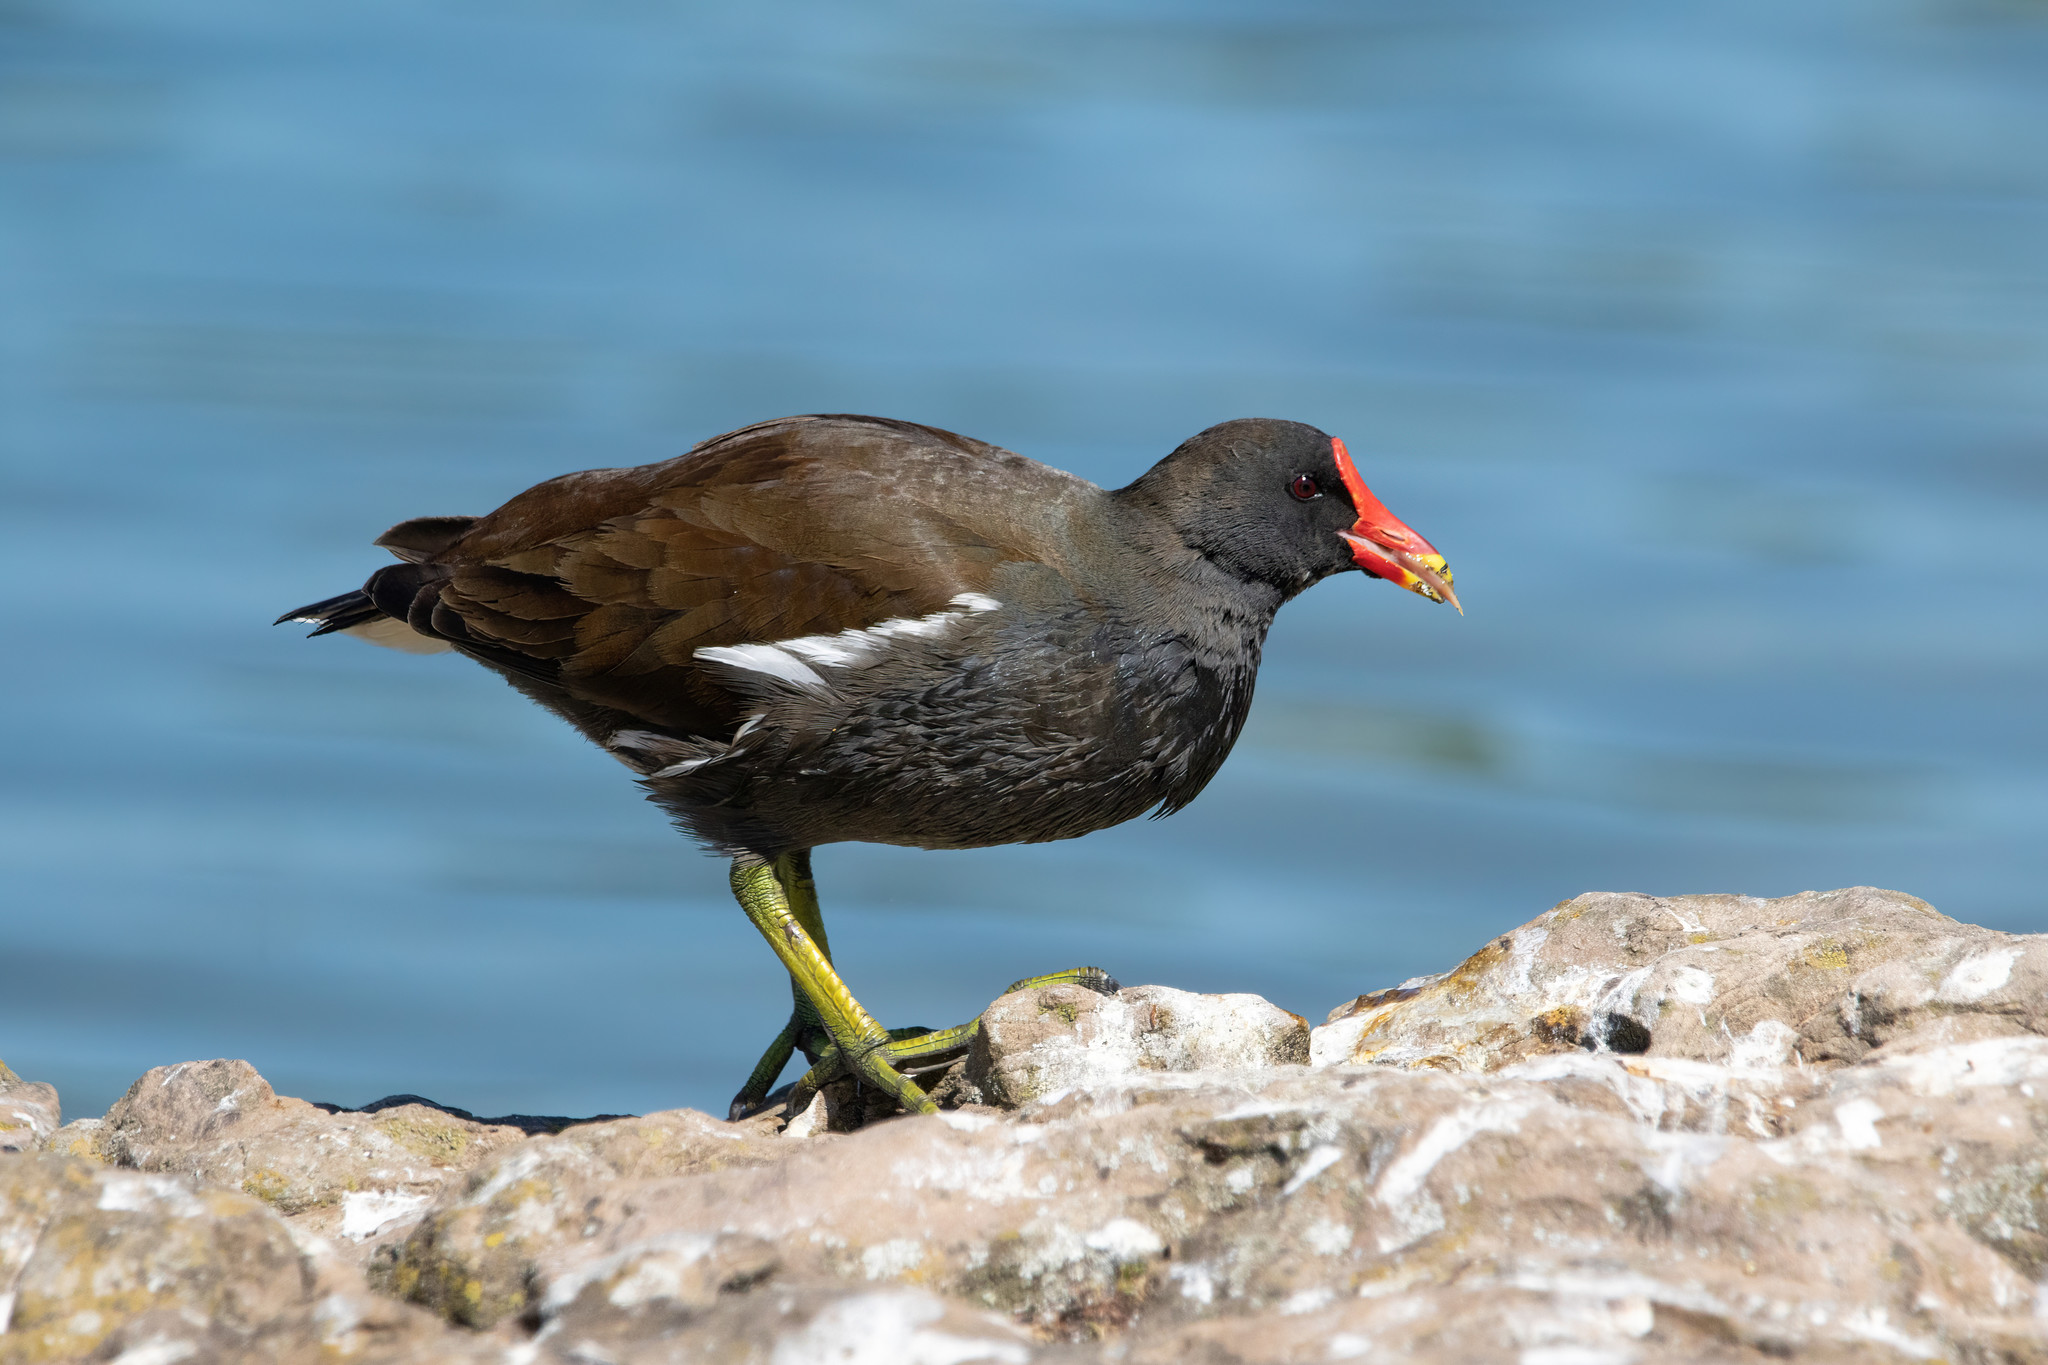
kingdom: Animalia
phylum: Chordata
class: Aves
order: Gruiformes
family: Rallidae
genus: Gallinula
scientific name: Gallinula chloropus
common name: Common moorhen
